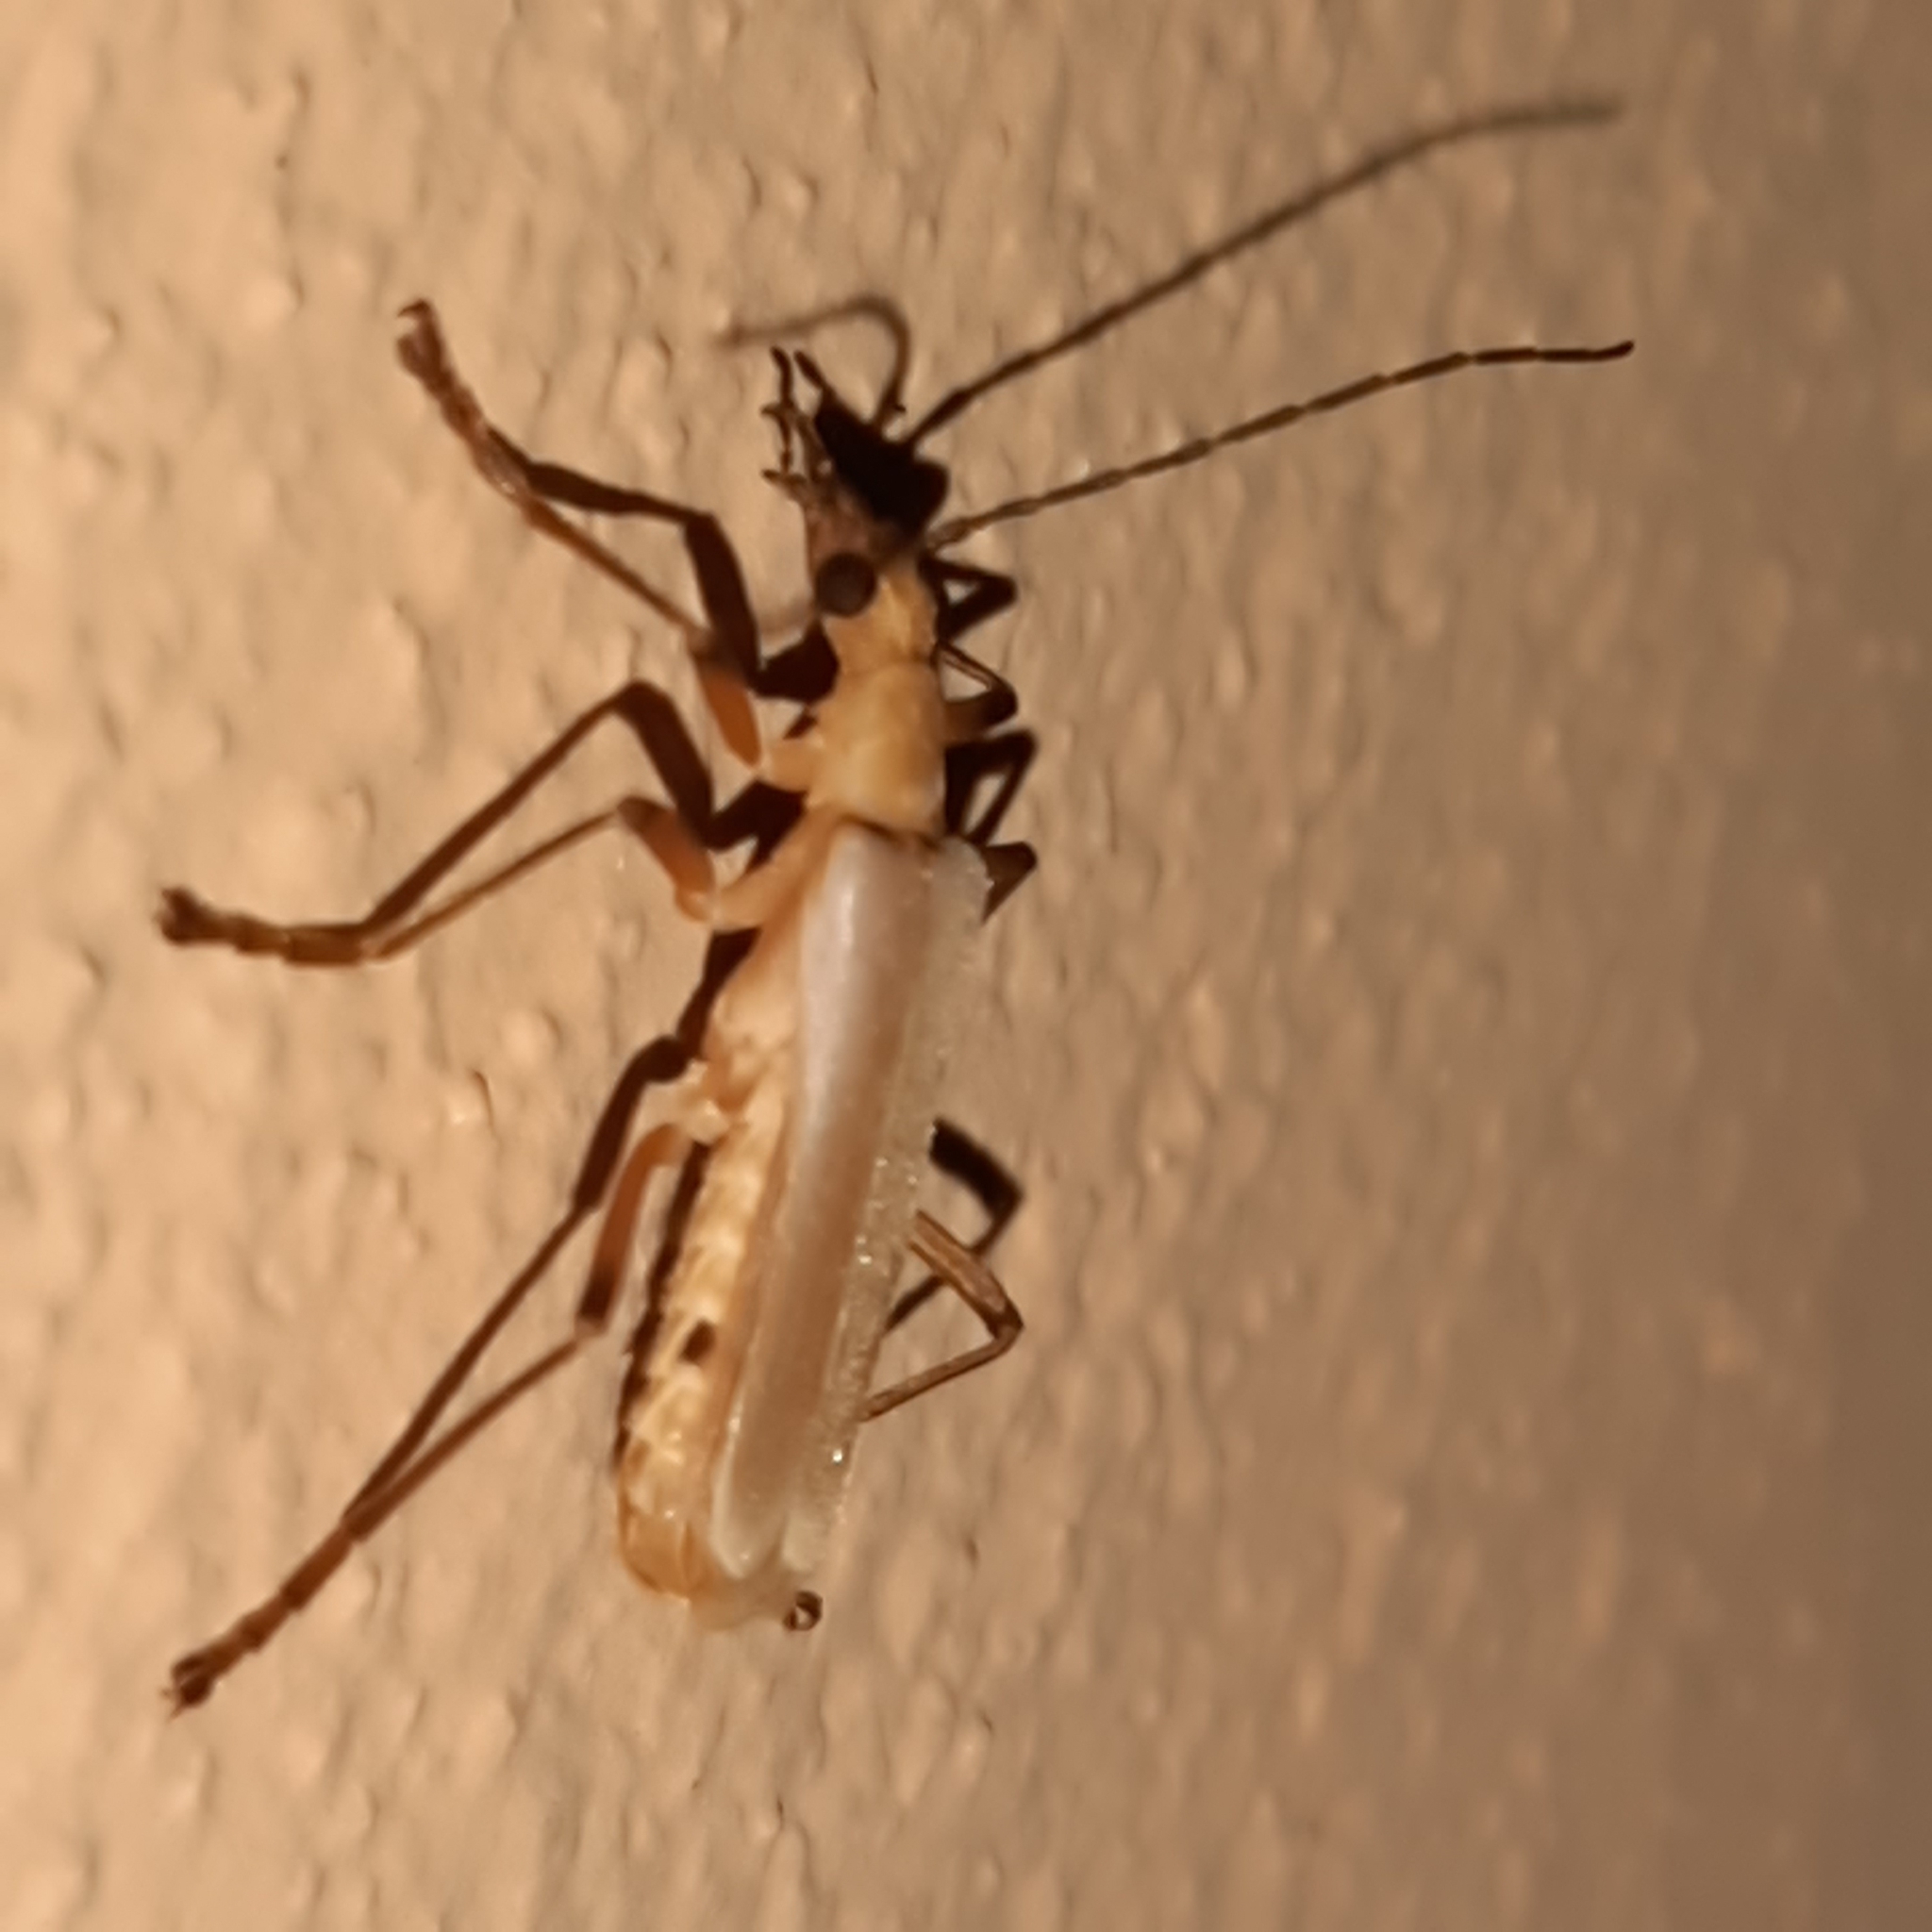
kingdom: Animalia
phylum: Arthropoda
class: Insecta
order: Coleoptera
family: Cantharidae
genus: Chauliognathus
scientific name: Chauliognathus
